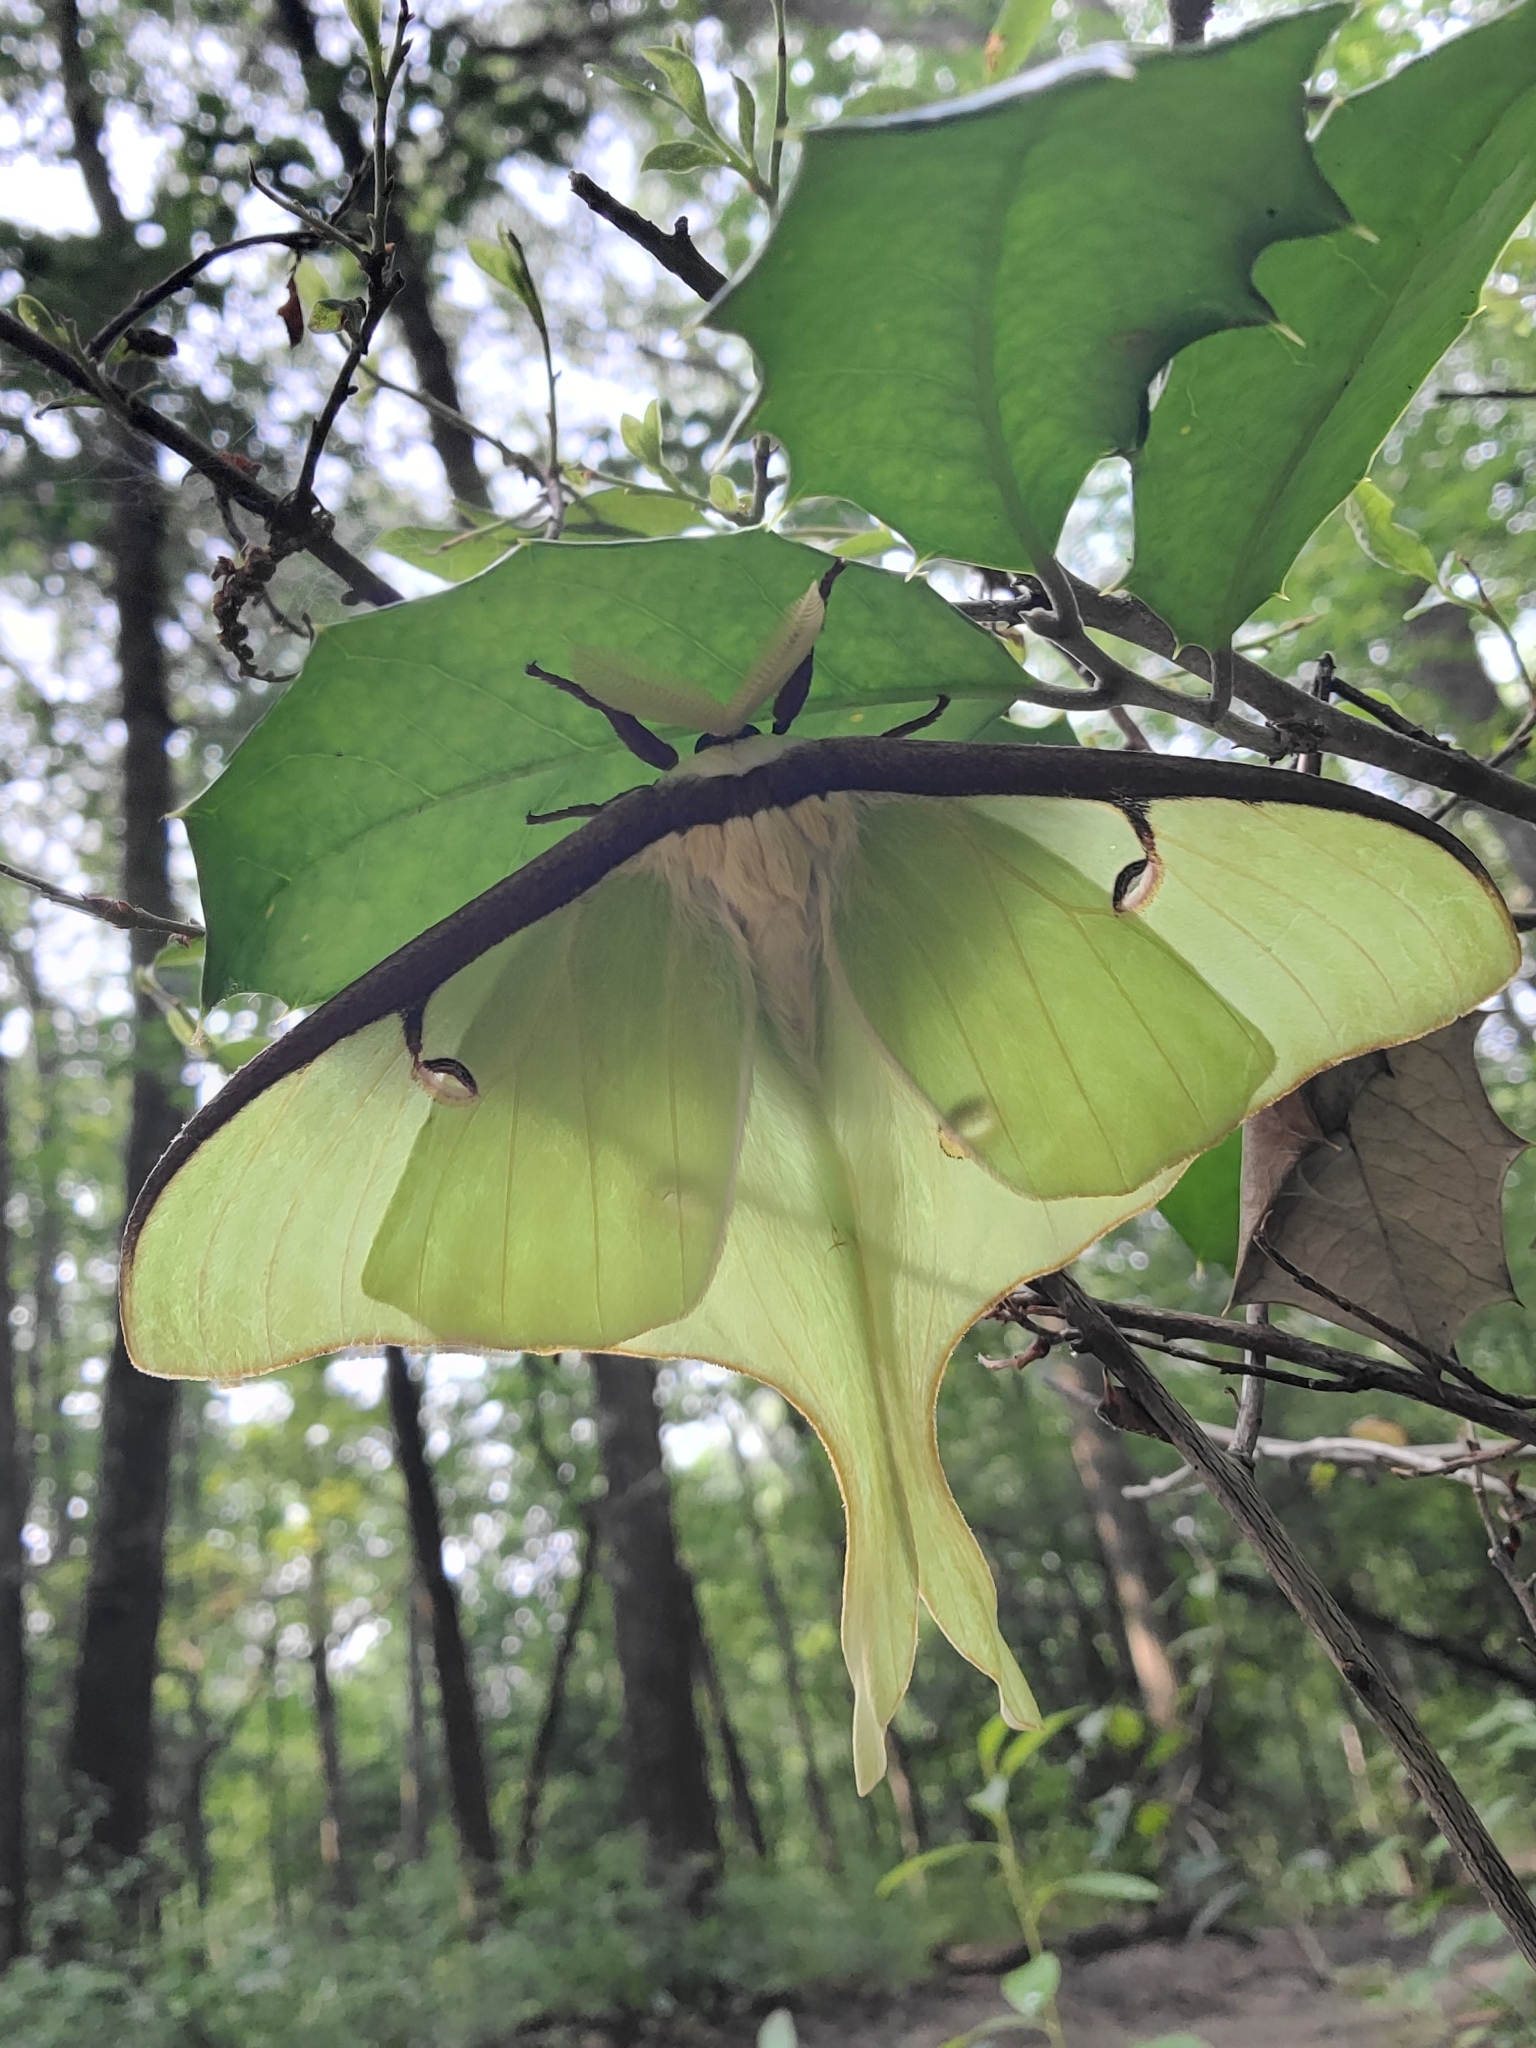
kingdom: Animalia
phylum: Arthropoda
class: Insecta
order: Lepidoptera
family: Saturniidae
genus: Actias
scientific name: Actias luna
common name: Luna moth
